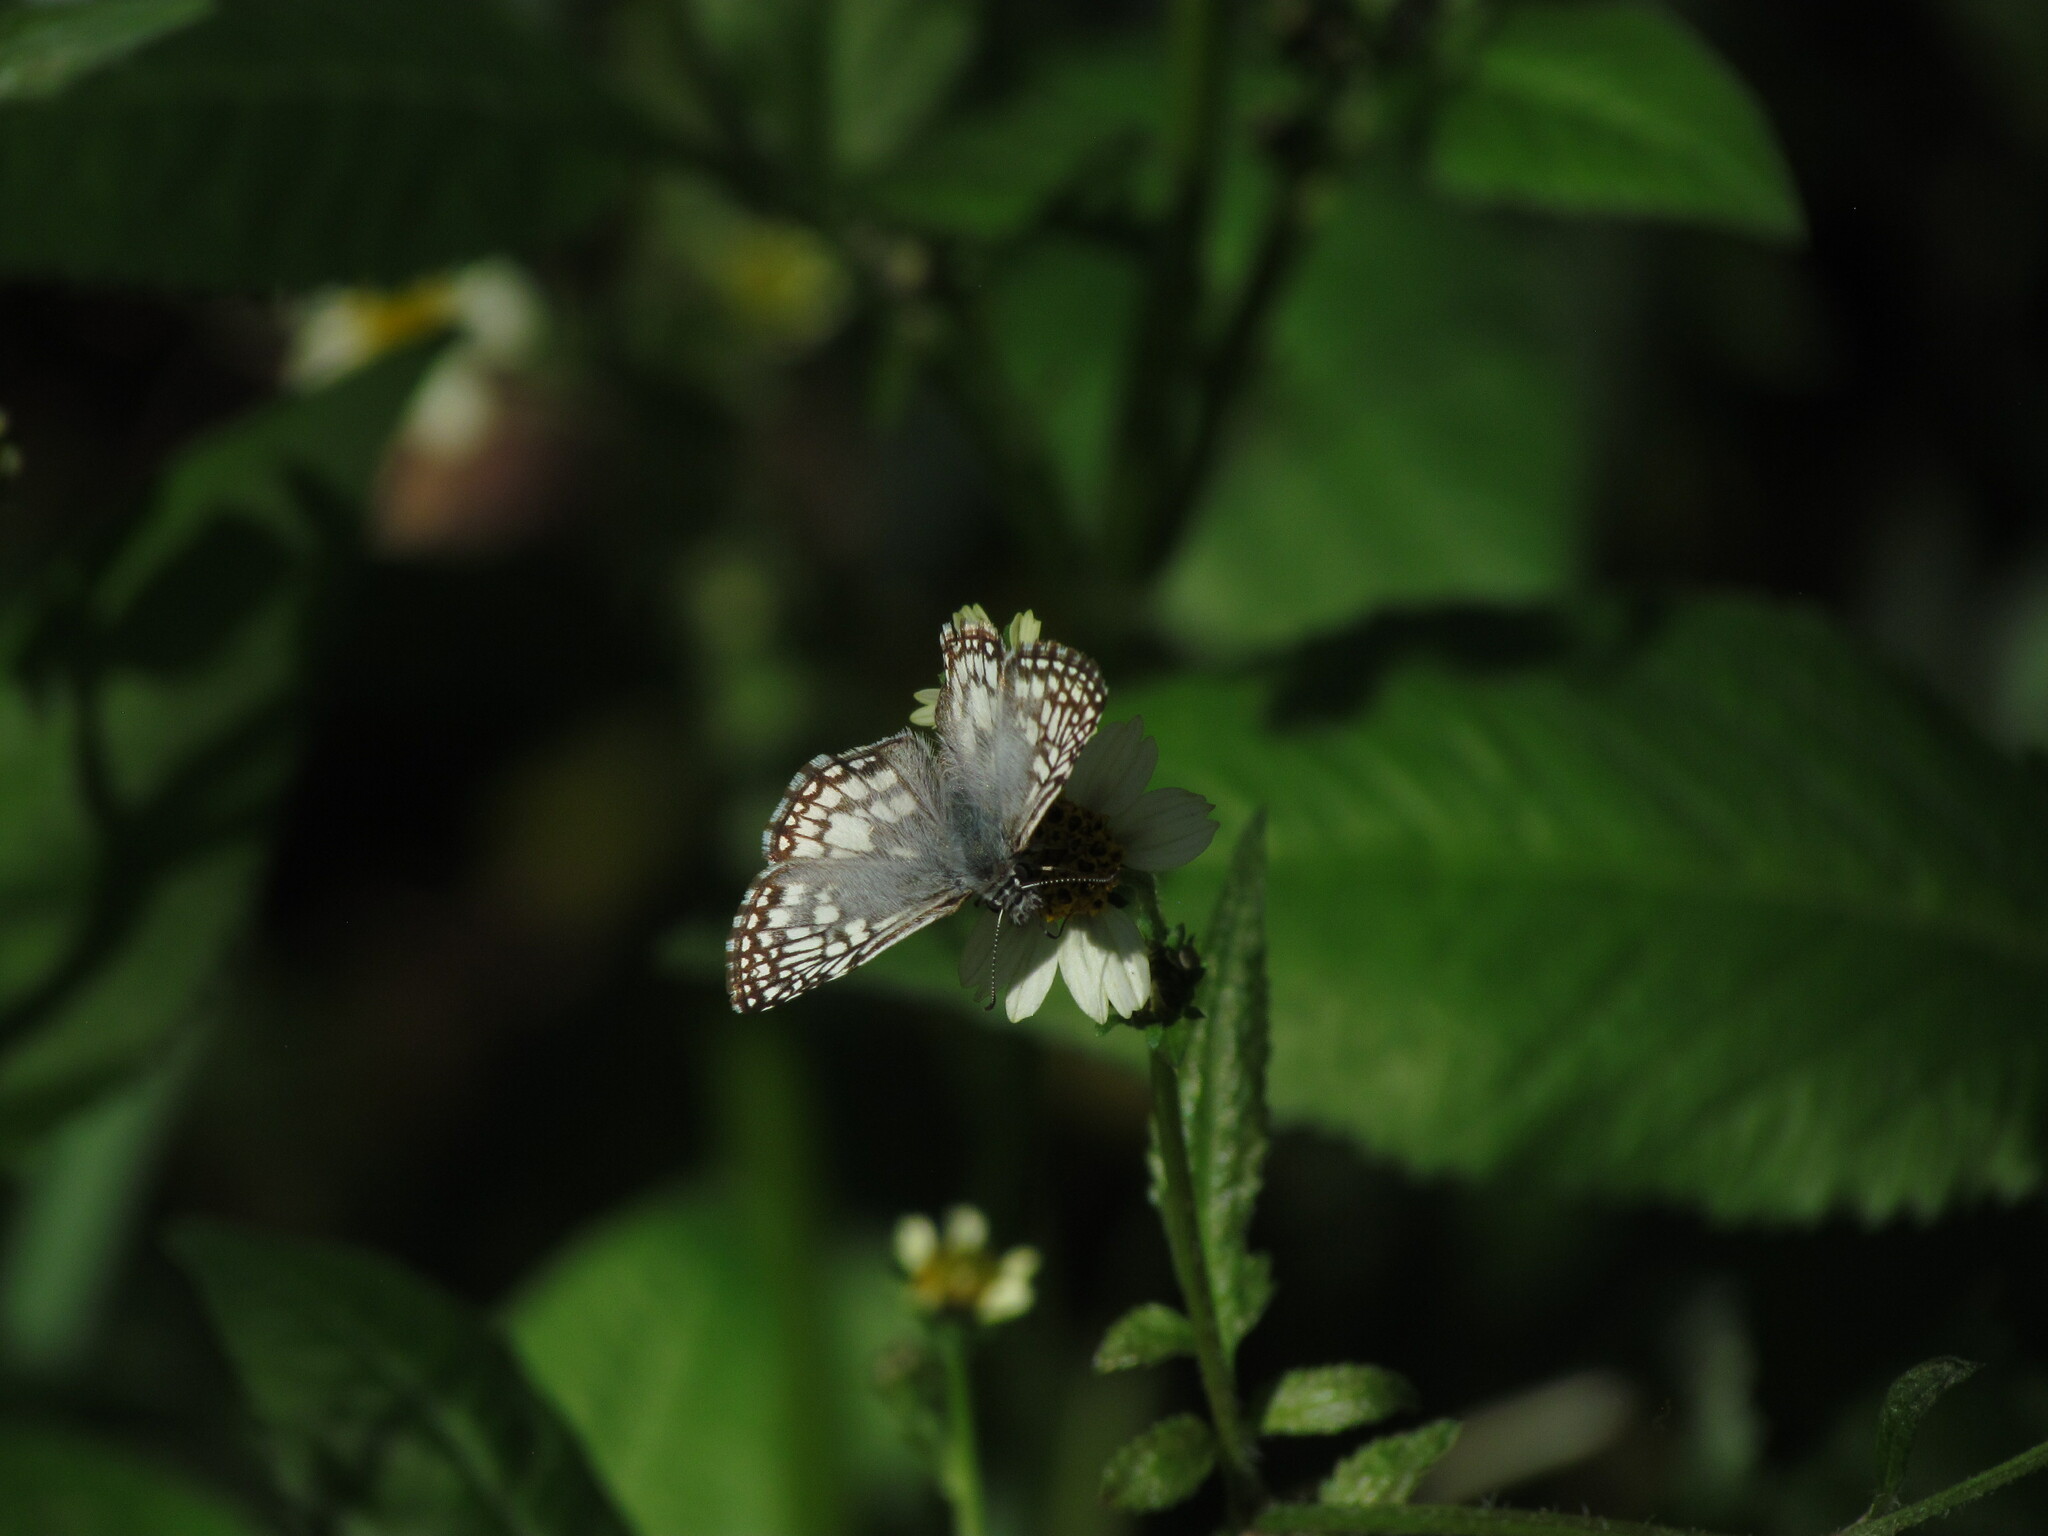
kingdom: Animalia
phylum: Arthropoda
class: Insecta
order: Lepidoptera
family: Hesperiidae
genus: Pyrgus
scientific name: Pyrgus oileus
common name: Tropical checkered-skipper
